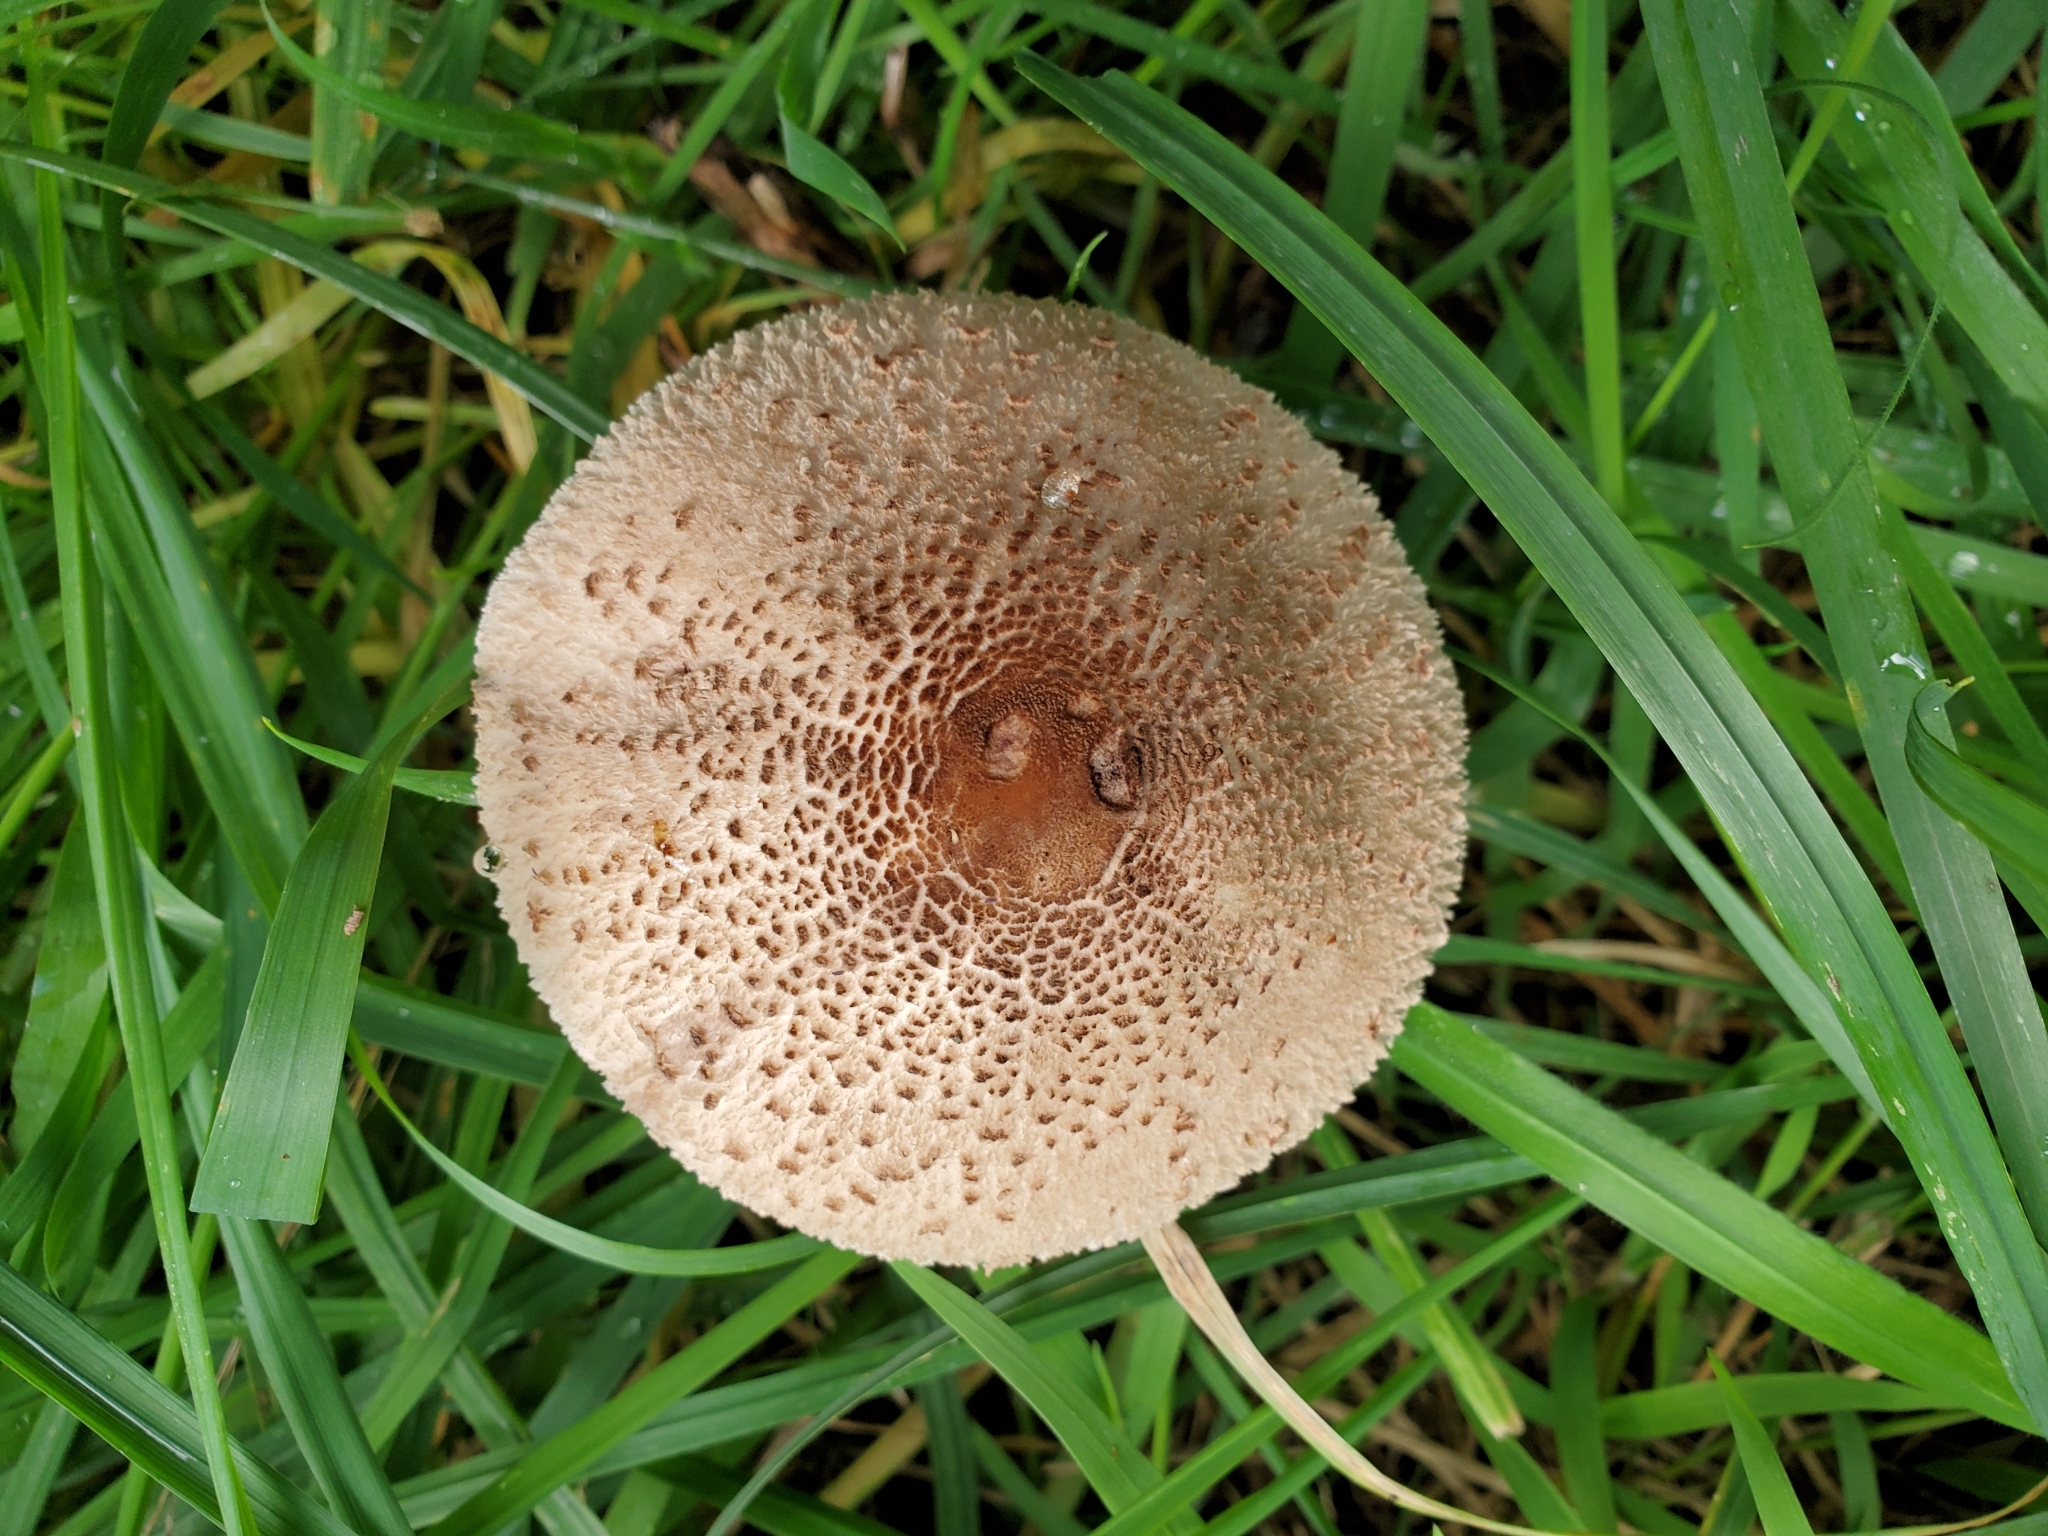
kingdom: Fungi
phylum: Basidiomycota
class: Agaricomycetes
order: Agaricales
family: Agaricaceae
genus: Macrolepiota
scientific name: Macrolepiota clelandii
